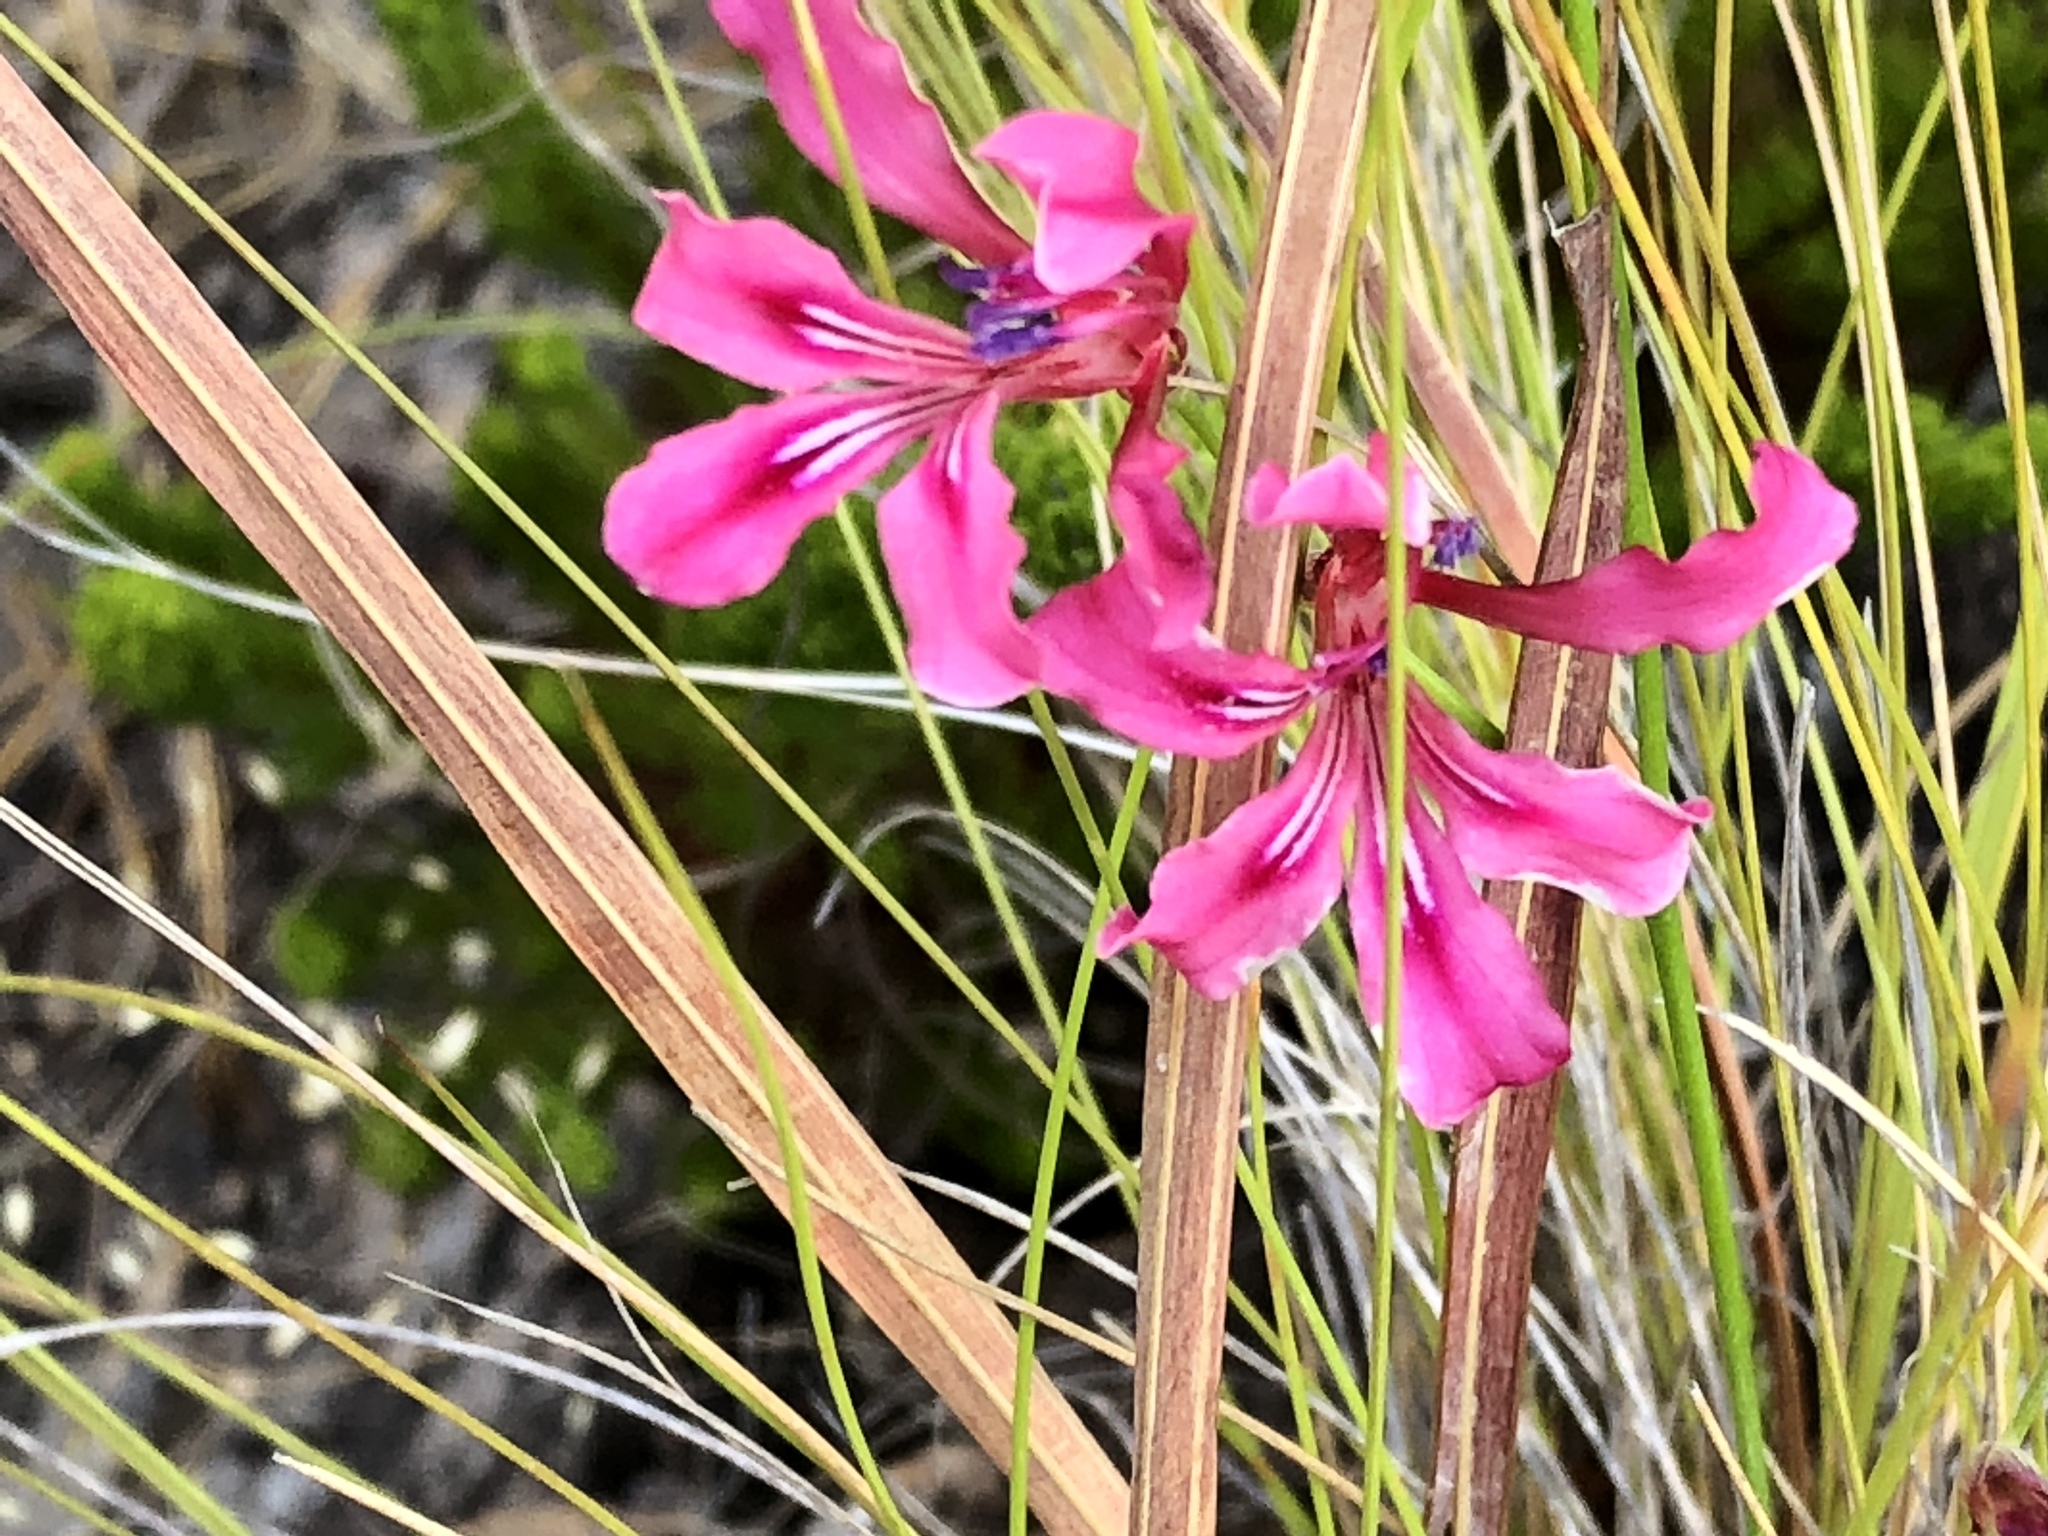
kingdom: Plantae
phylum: Tracheophyta
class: Liliopsida
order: Asparagales
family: Iridaceae
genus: Tritoniopsis
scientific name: Tritoniopsis ramosa
